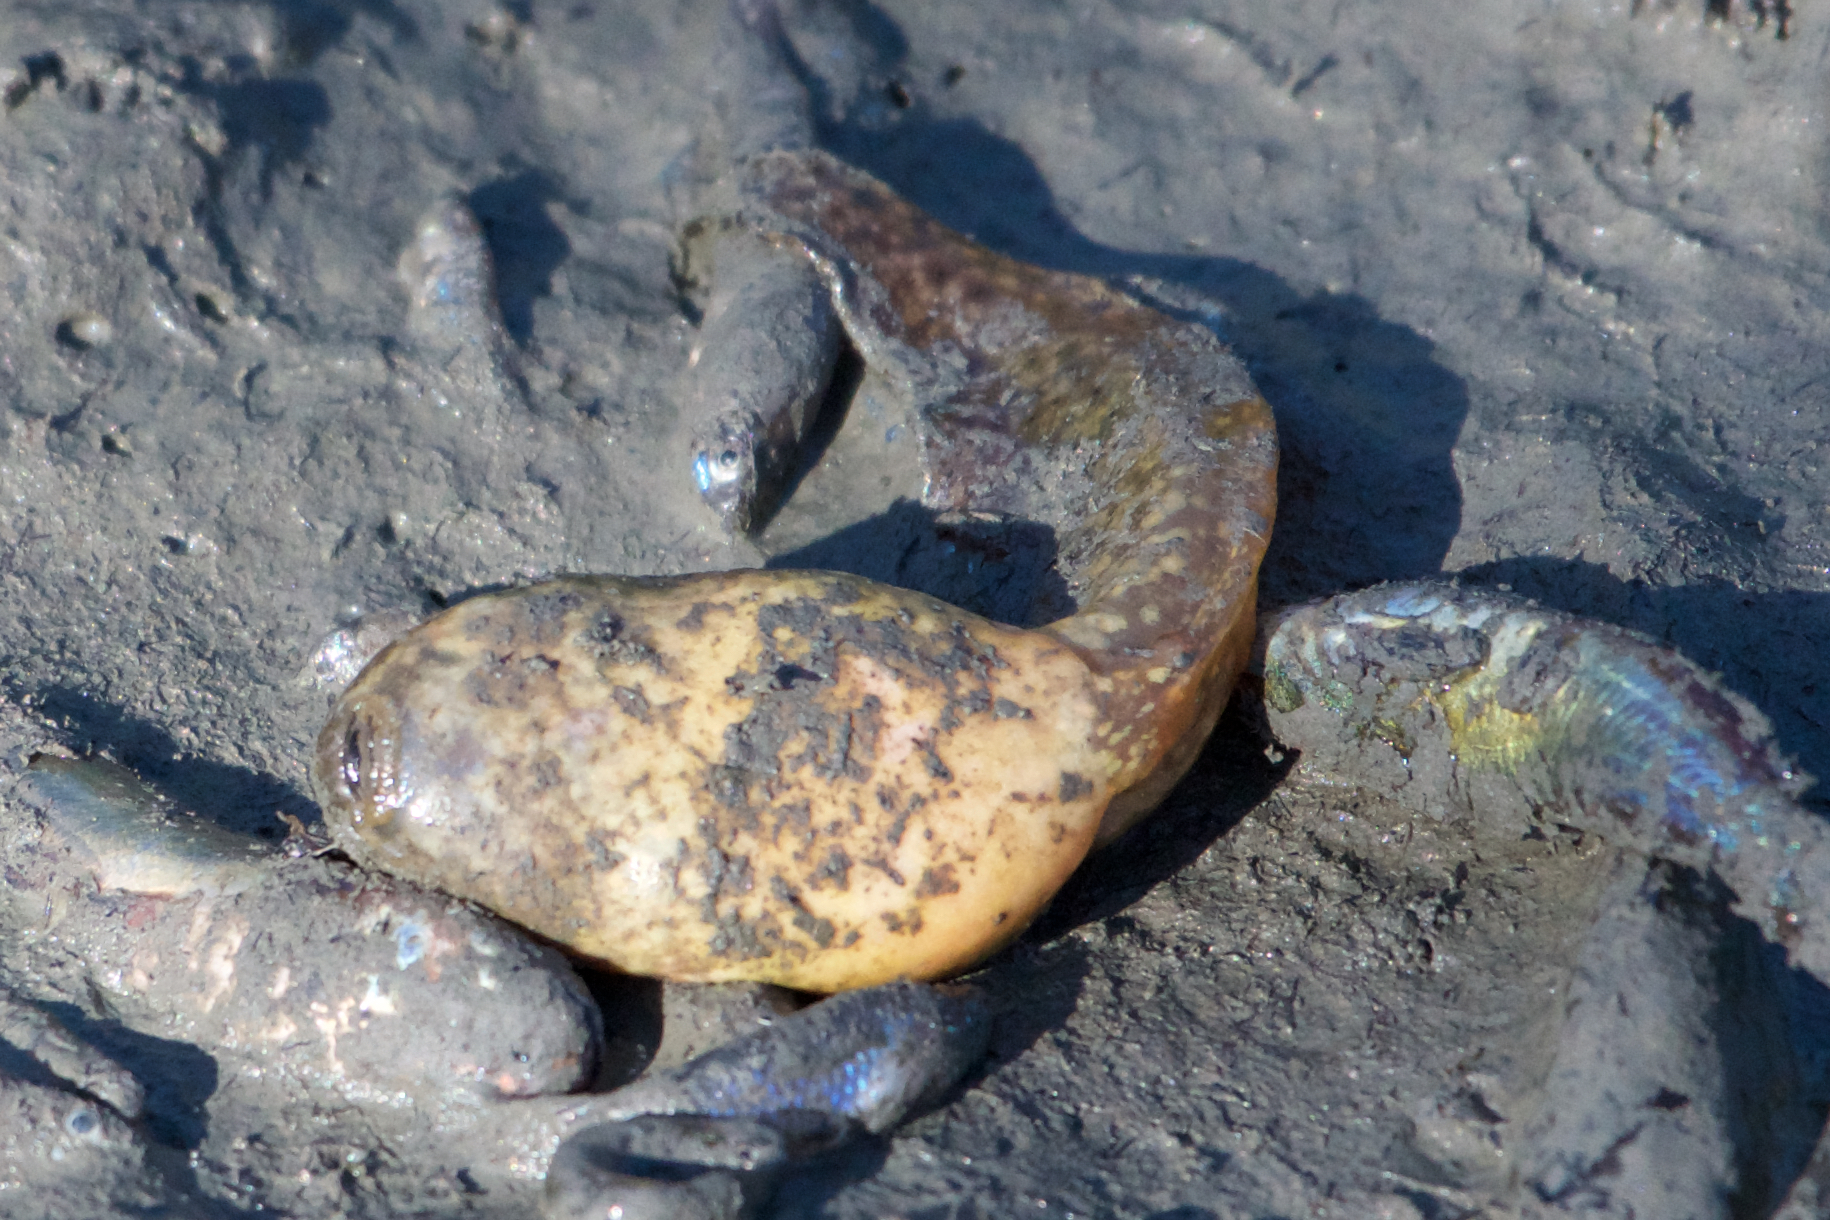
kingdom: Animalia
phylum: Chordata
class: Amphibia
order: Anura
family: Ranidae
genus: Lithobates
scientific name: Lithobates catesbeianus
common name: American bullfrog
